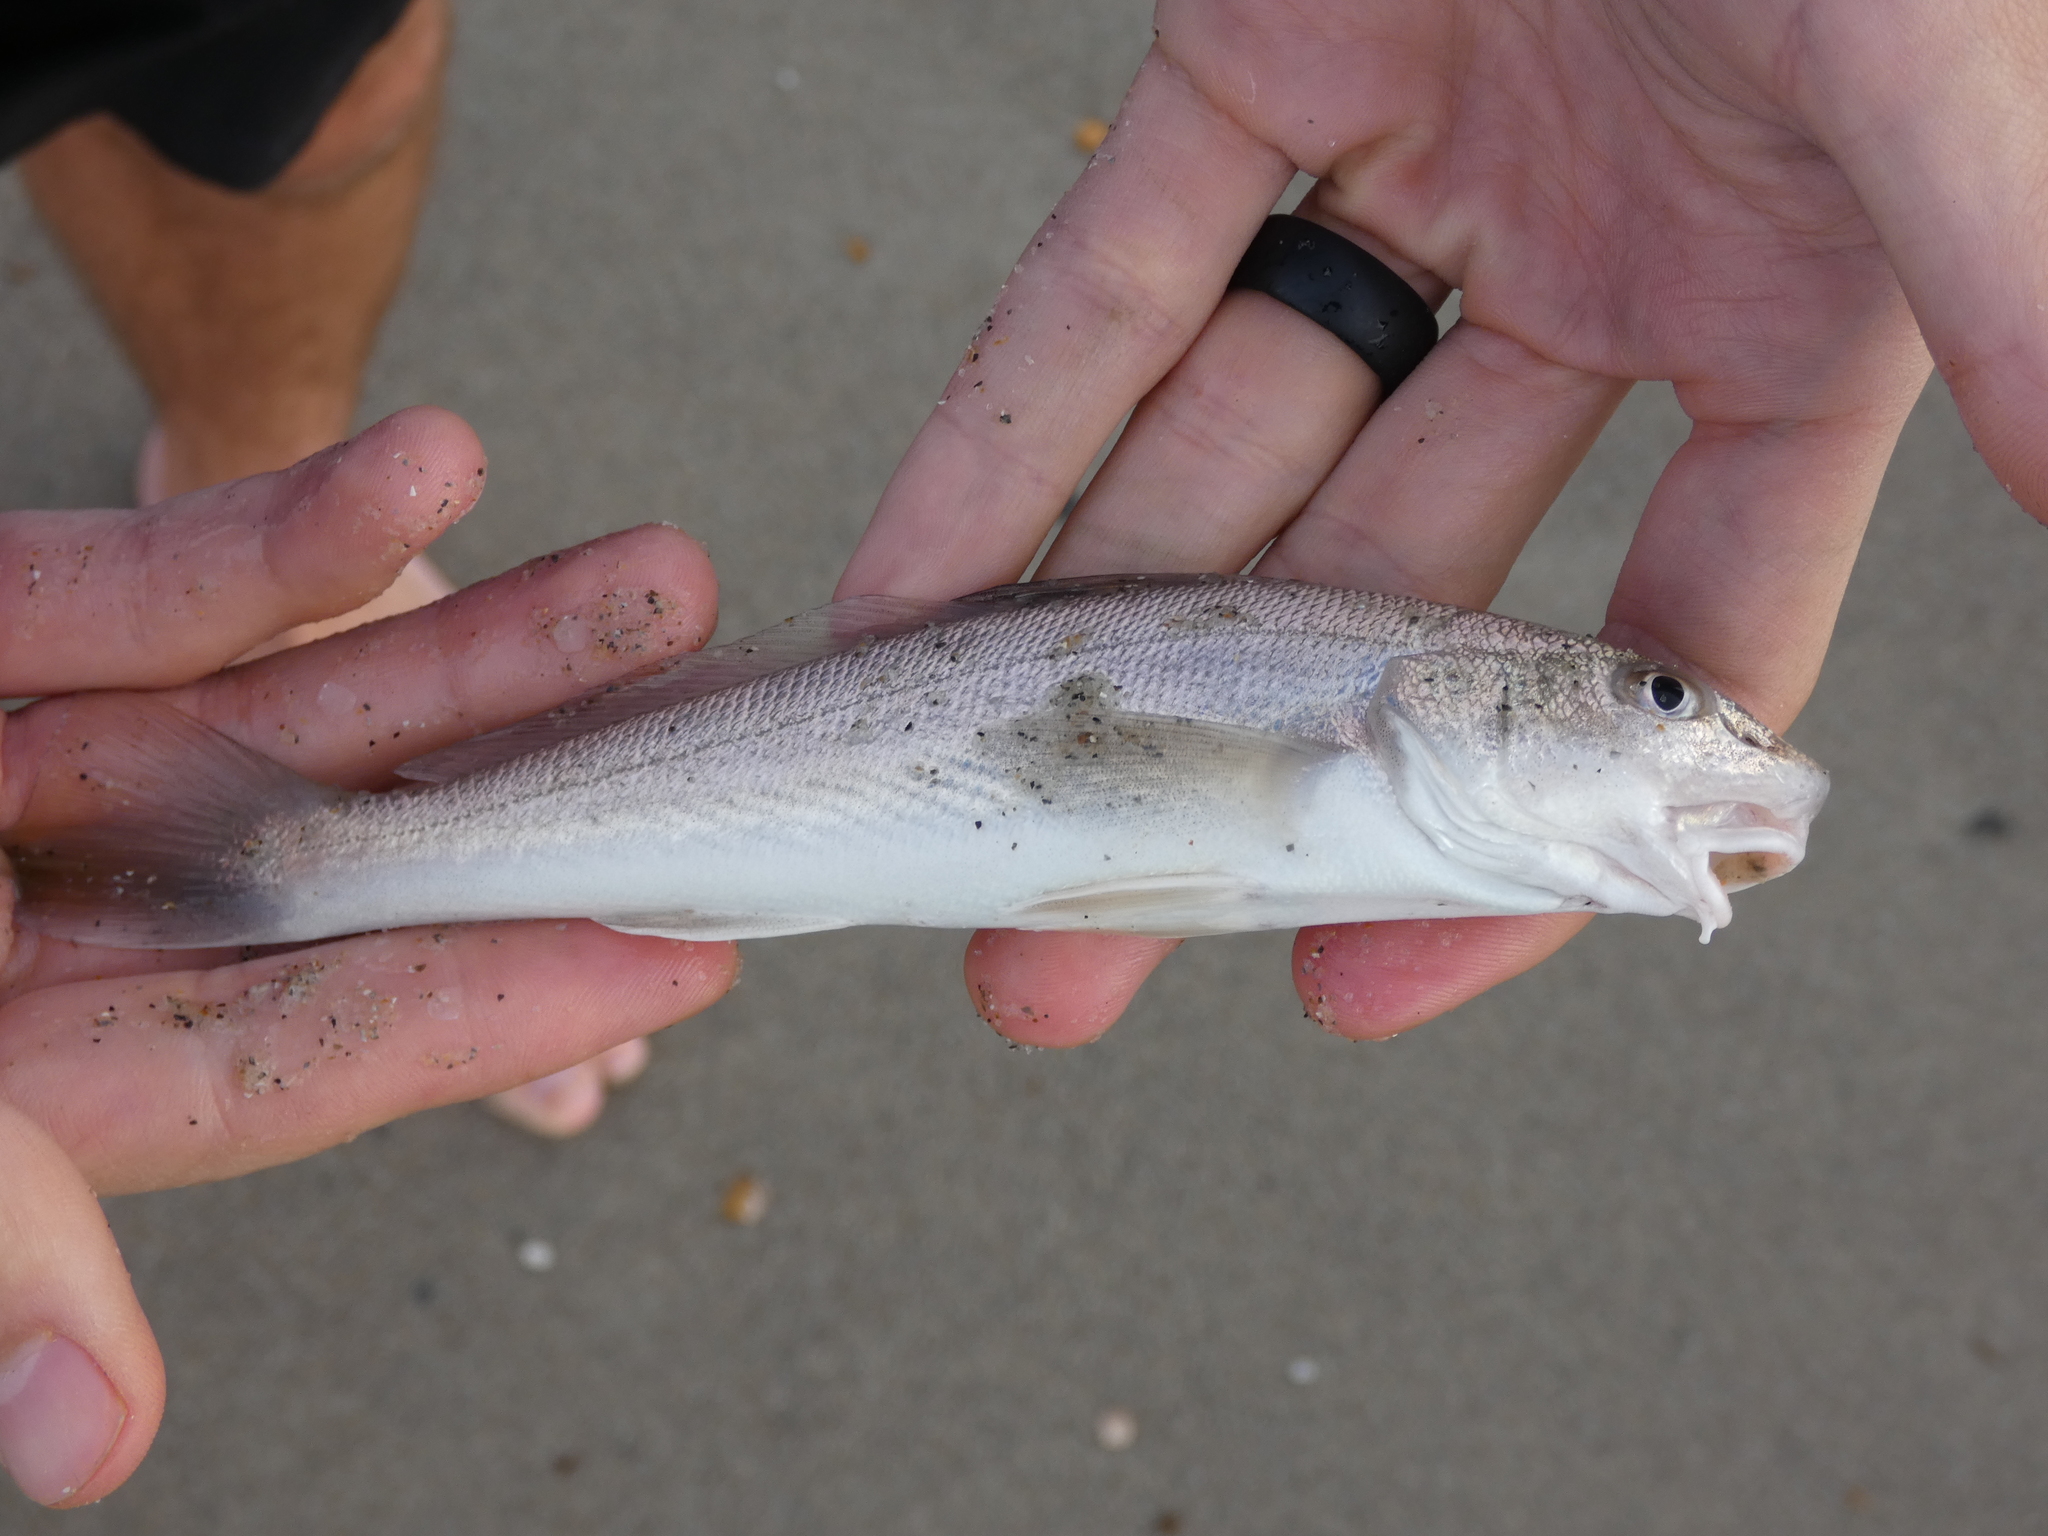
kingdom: Animalia
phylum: Chordata
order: Perciformes
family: Sciaenidae
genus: Menticirrhus
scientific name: Menticirrhus americanus
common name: Southern kingfish
